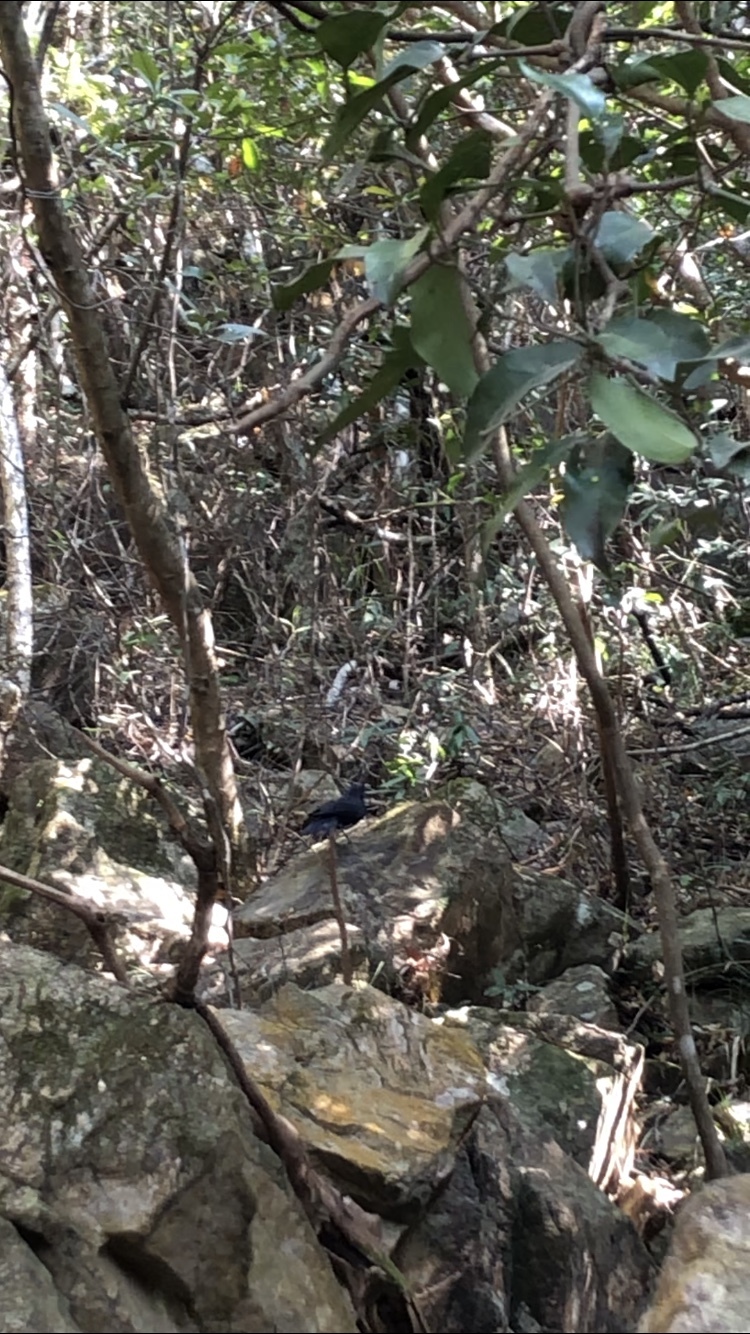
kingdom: Animalia
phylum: Chordata
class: Aves
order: Passeriformes
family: Leiothrichidae
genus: Garrulax
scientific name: Garrulax chinensis
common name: Black-throated laughingthrush
